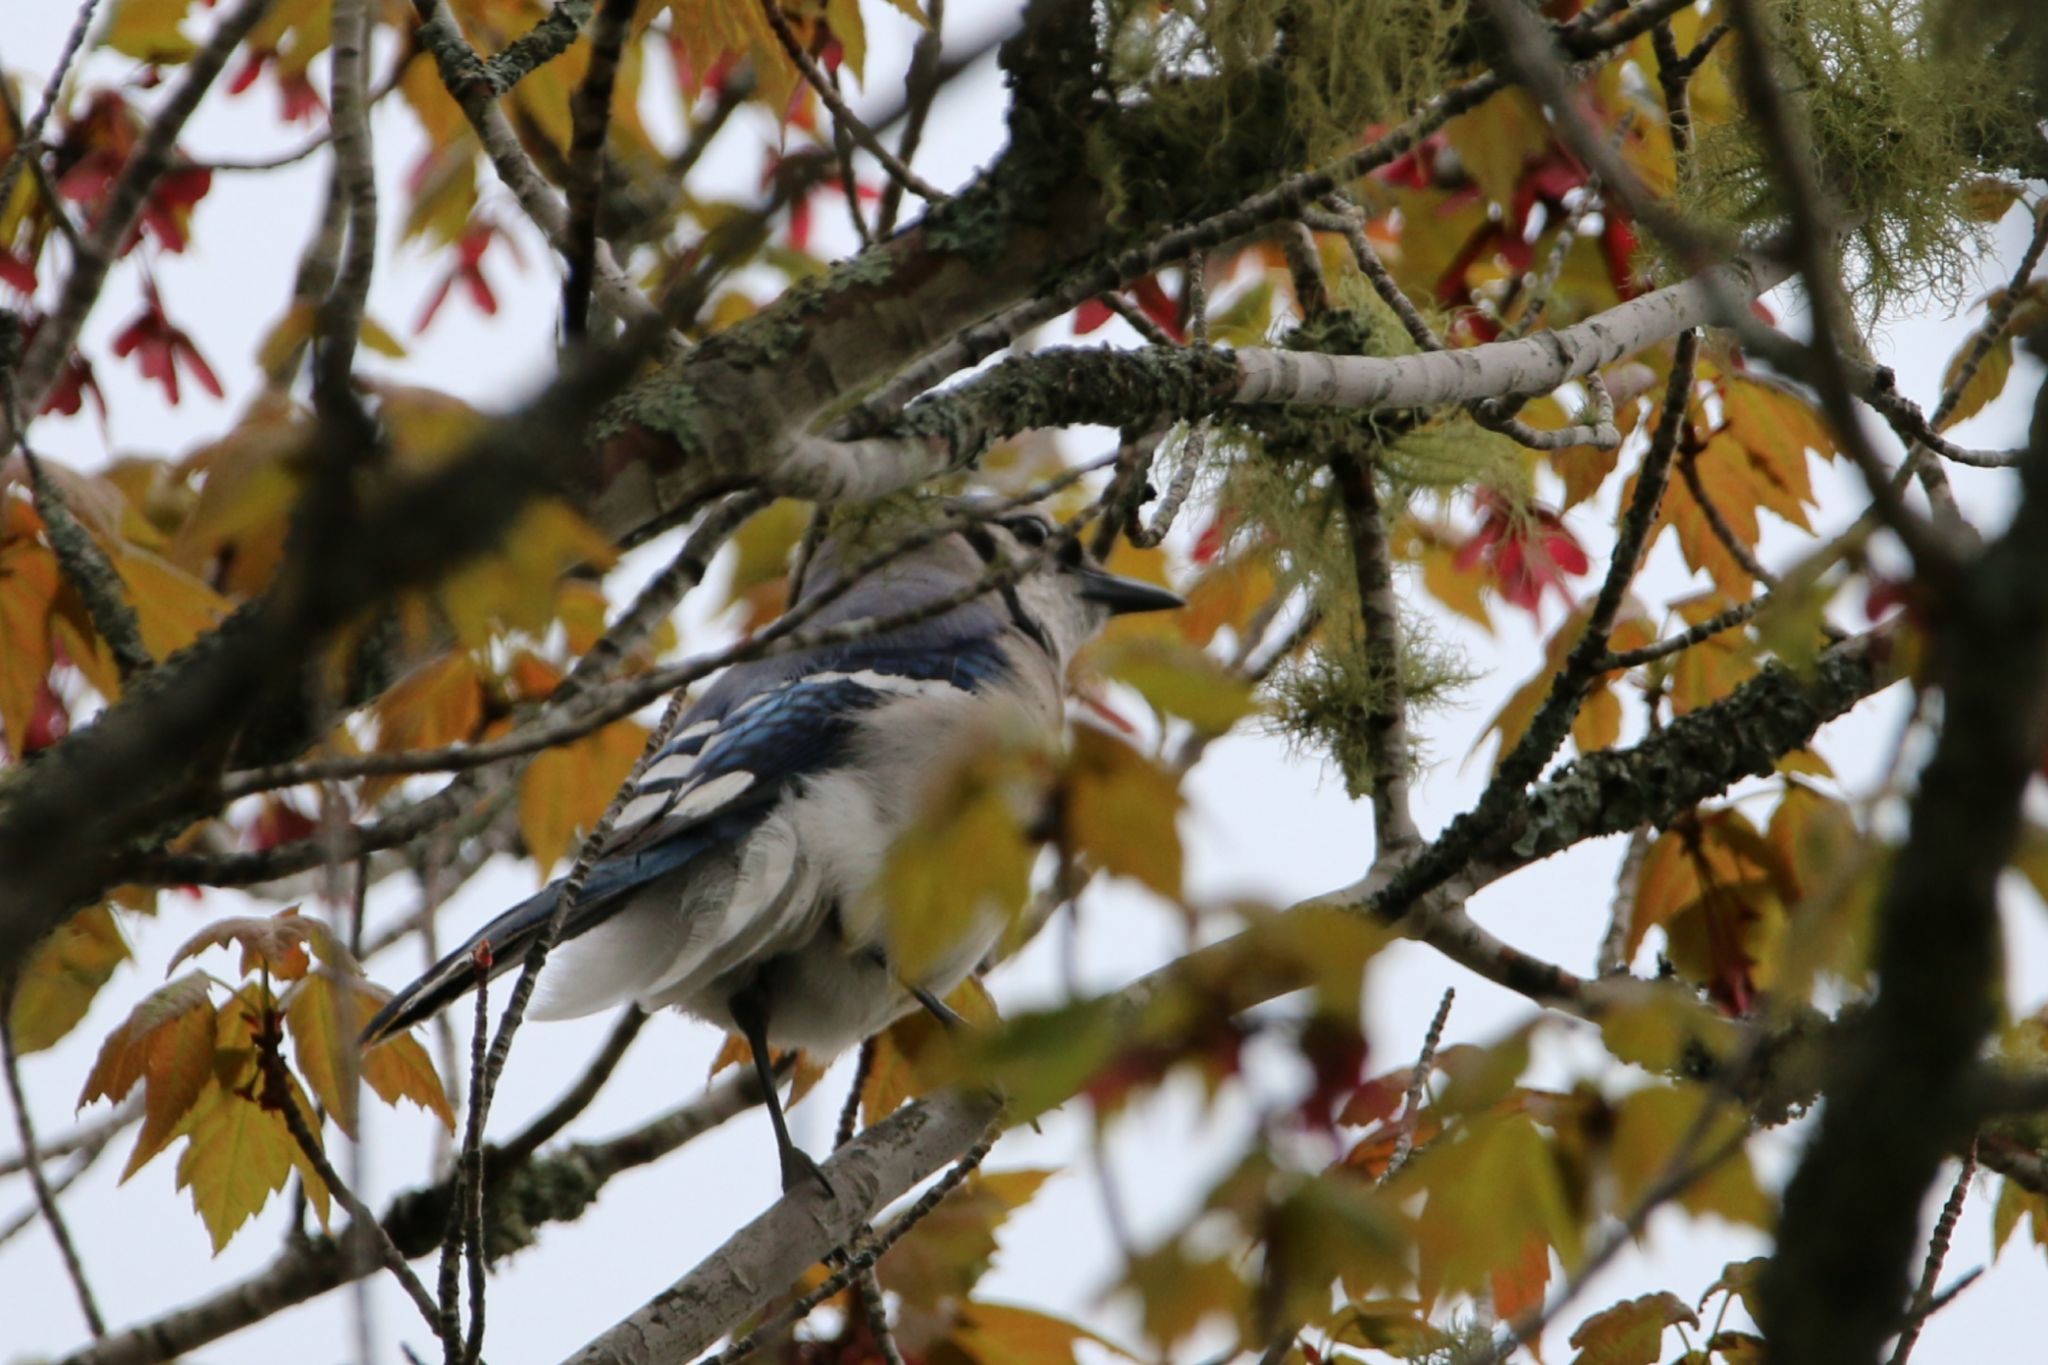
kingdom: Animalia
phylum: Chordata
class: Aves
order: Passeriformes
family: Corvidae
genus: Cyanocitta
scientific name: Cyanocitta cristata
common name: Blue jay
